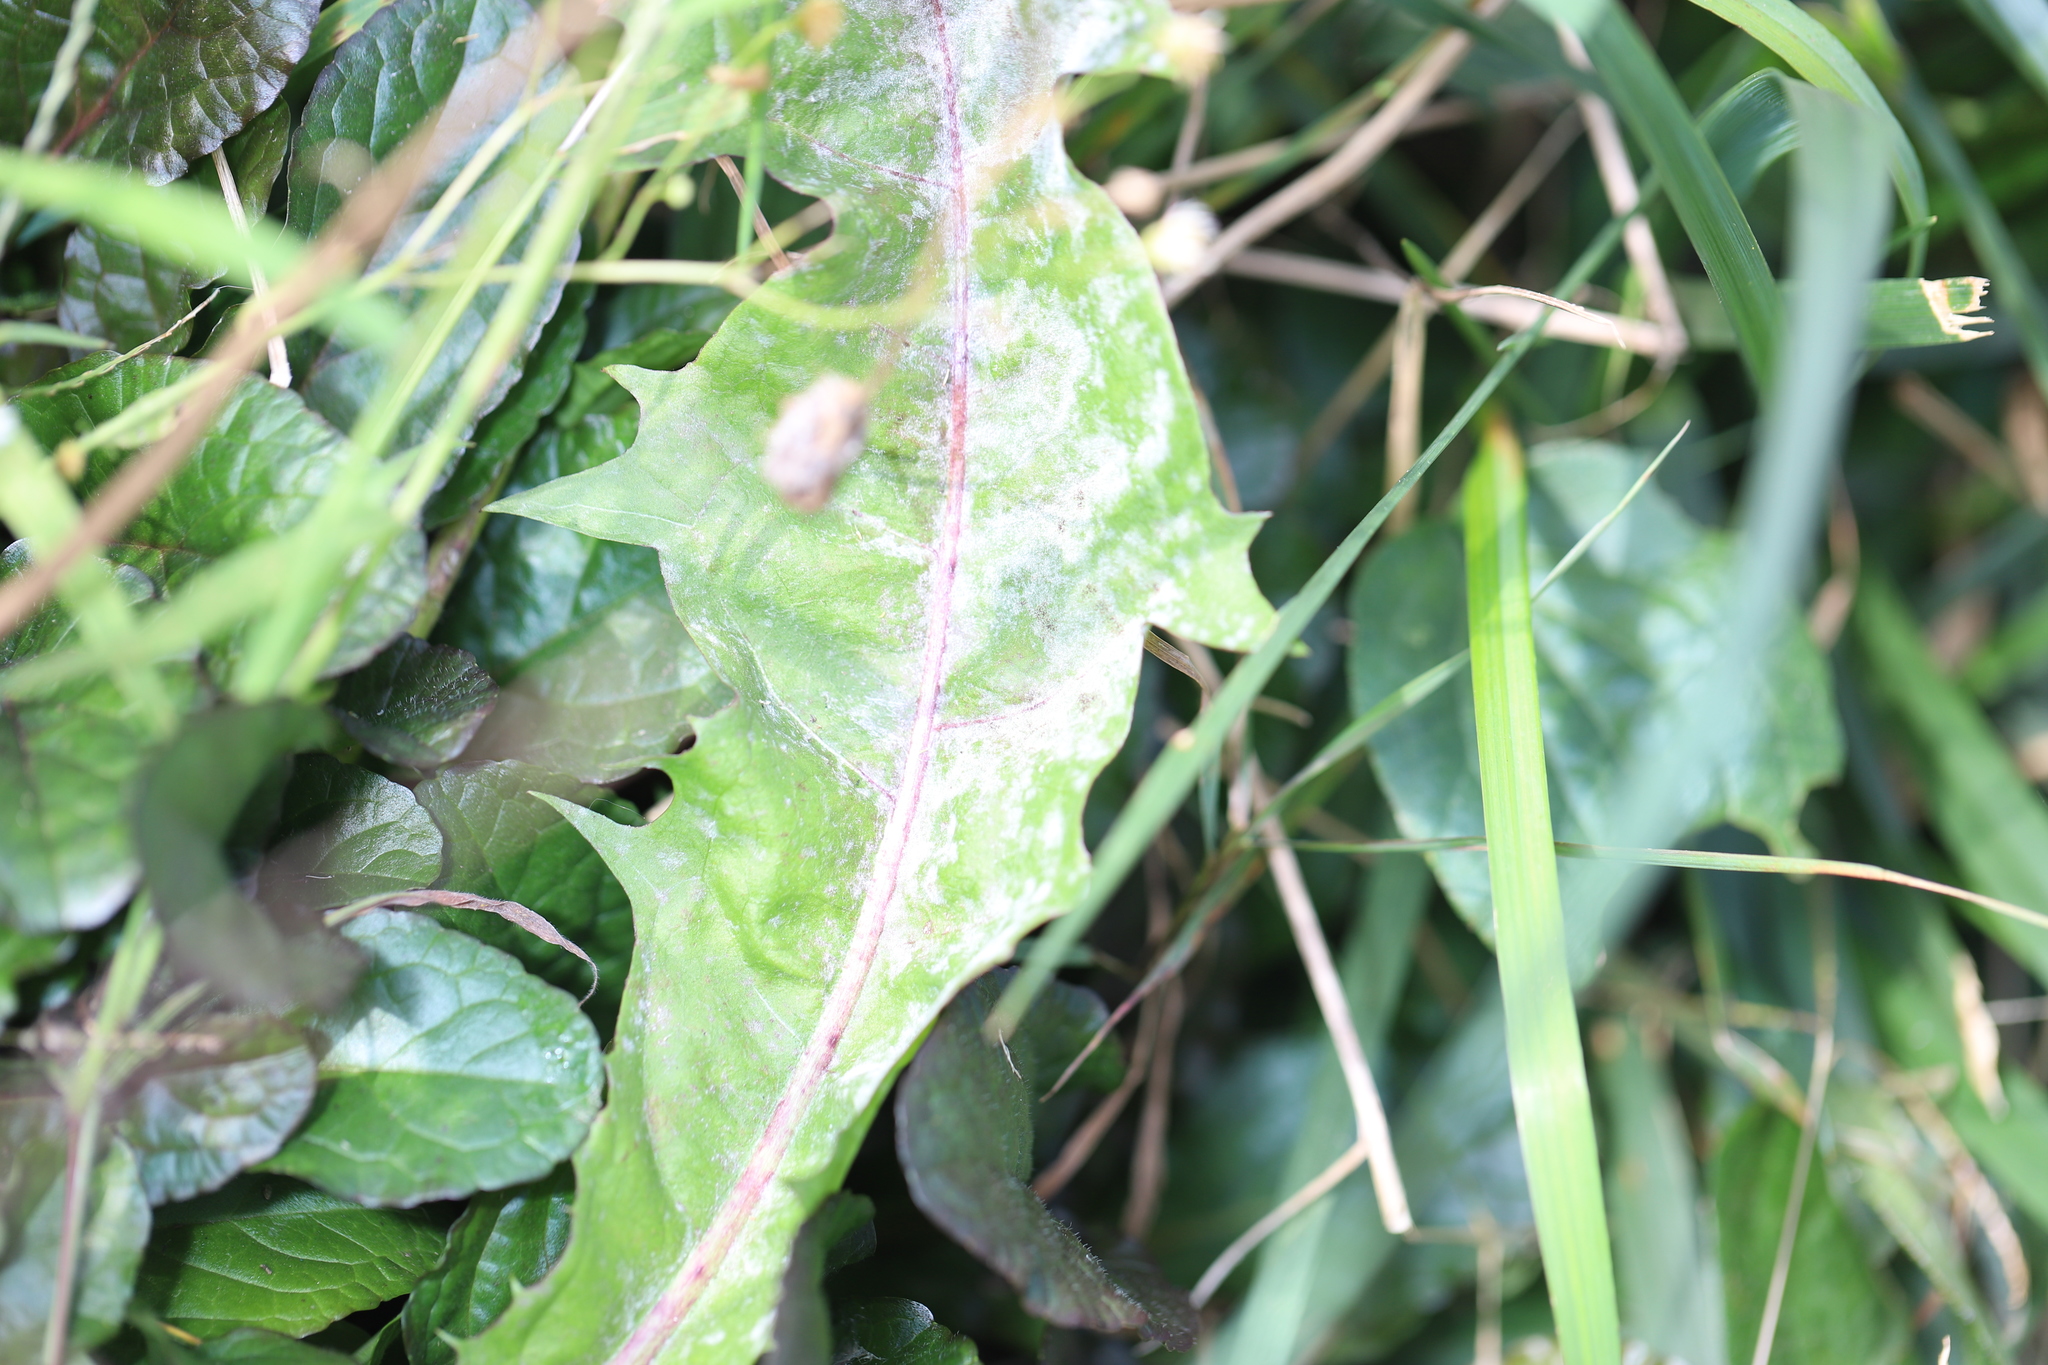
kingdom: Fungi
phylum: Ascomycota
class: Leotiomycetes
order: Helotiales
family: Erysiphaceae
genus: Podosphaera
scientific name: Podosphaera erigerontis-canadensis
